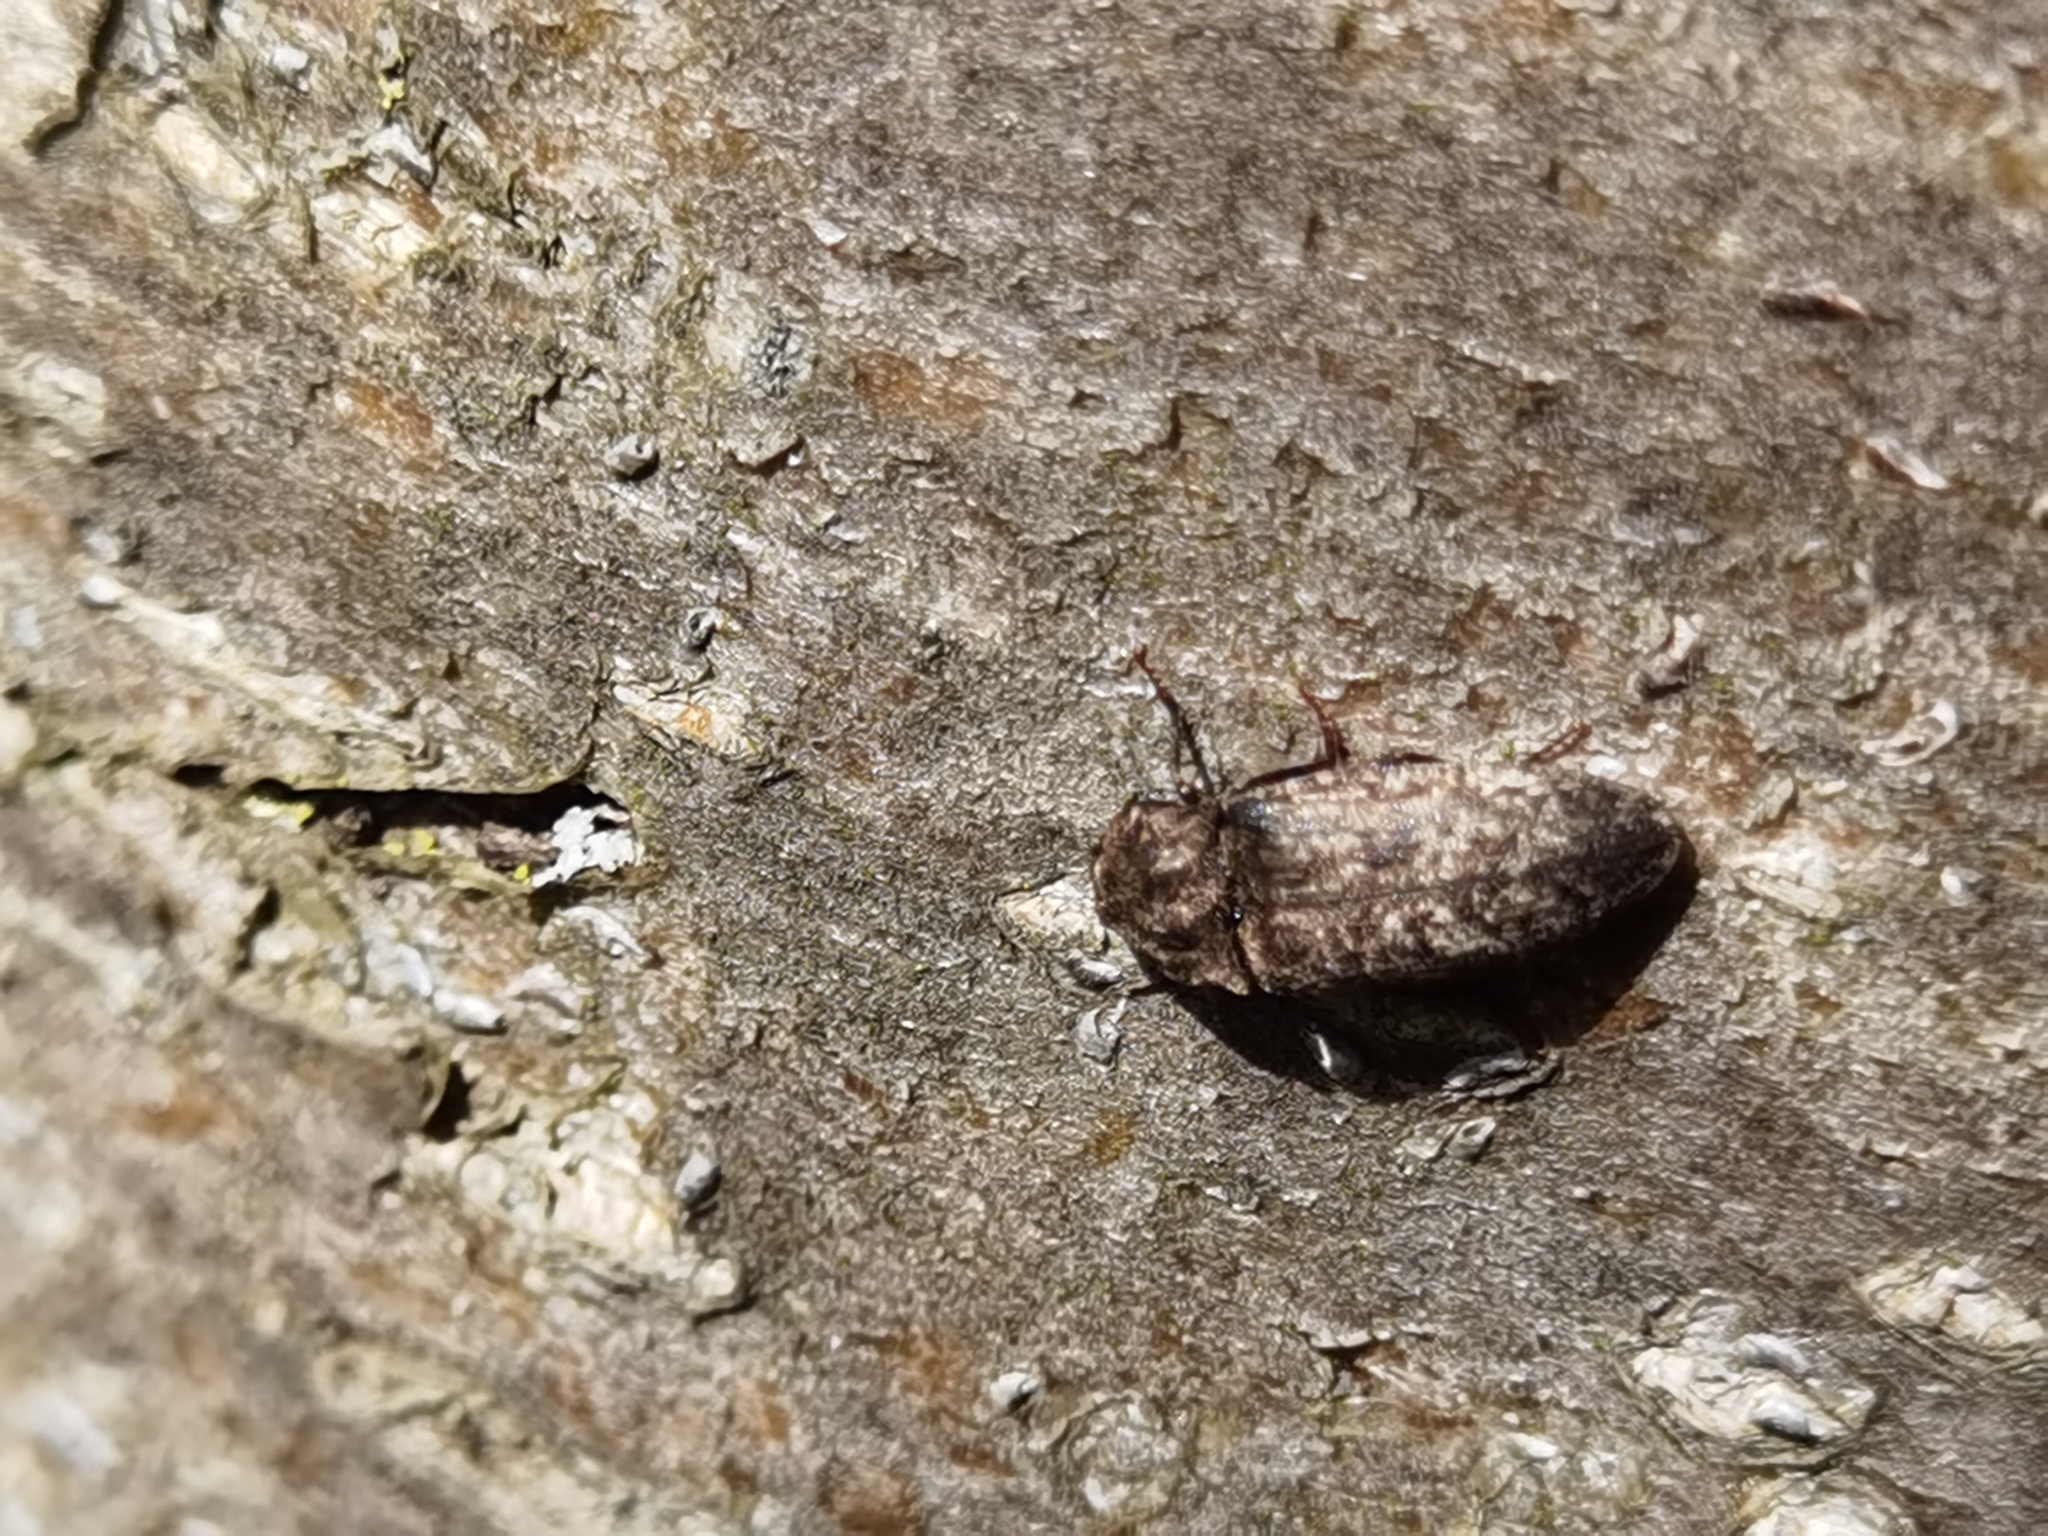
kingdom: Animalia
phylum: Arthropoda
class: Insecta
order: Coleoptera
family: Elateridae
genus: Agrypnus
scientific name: Agrypnus murinus
